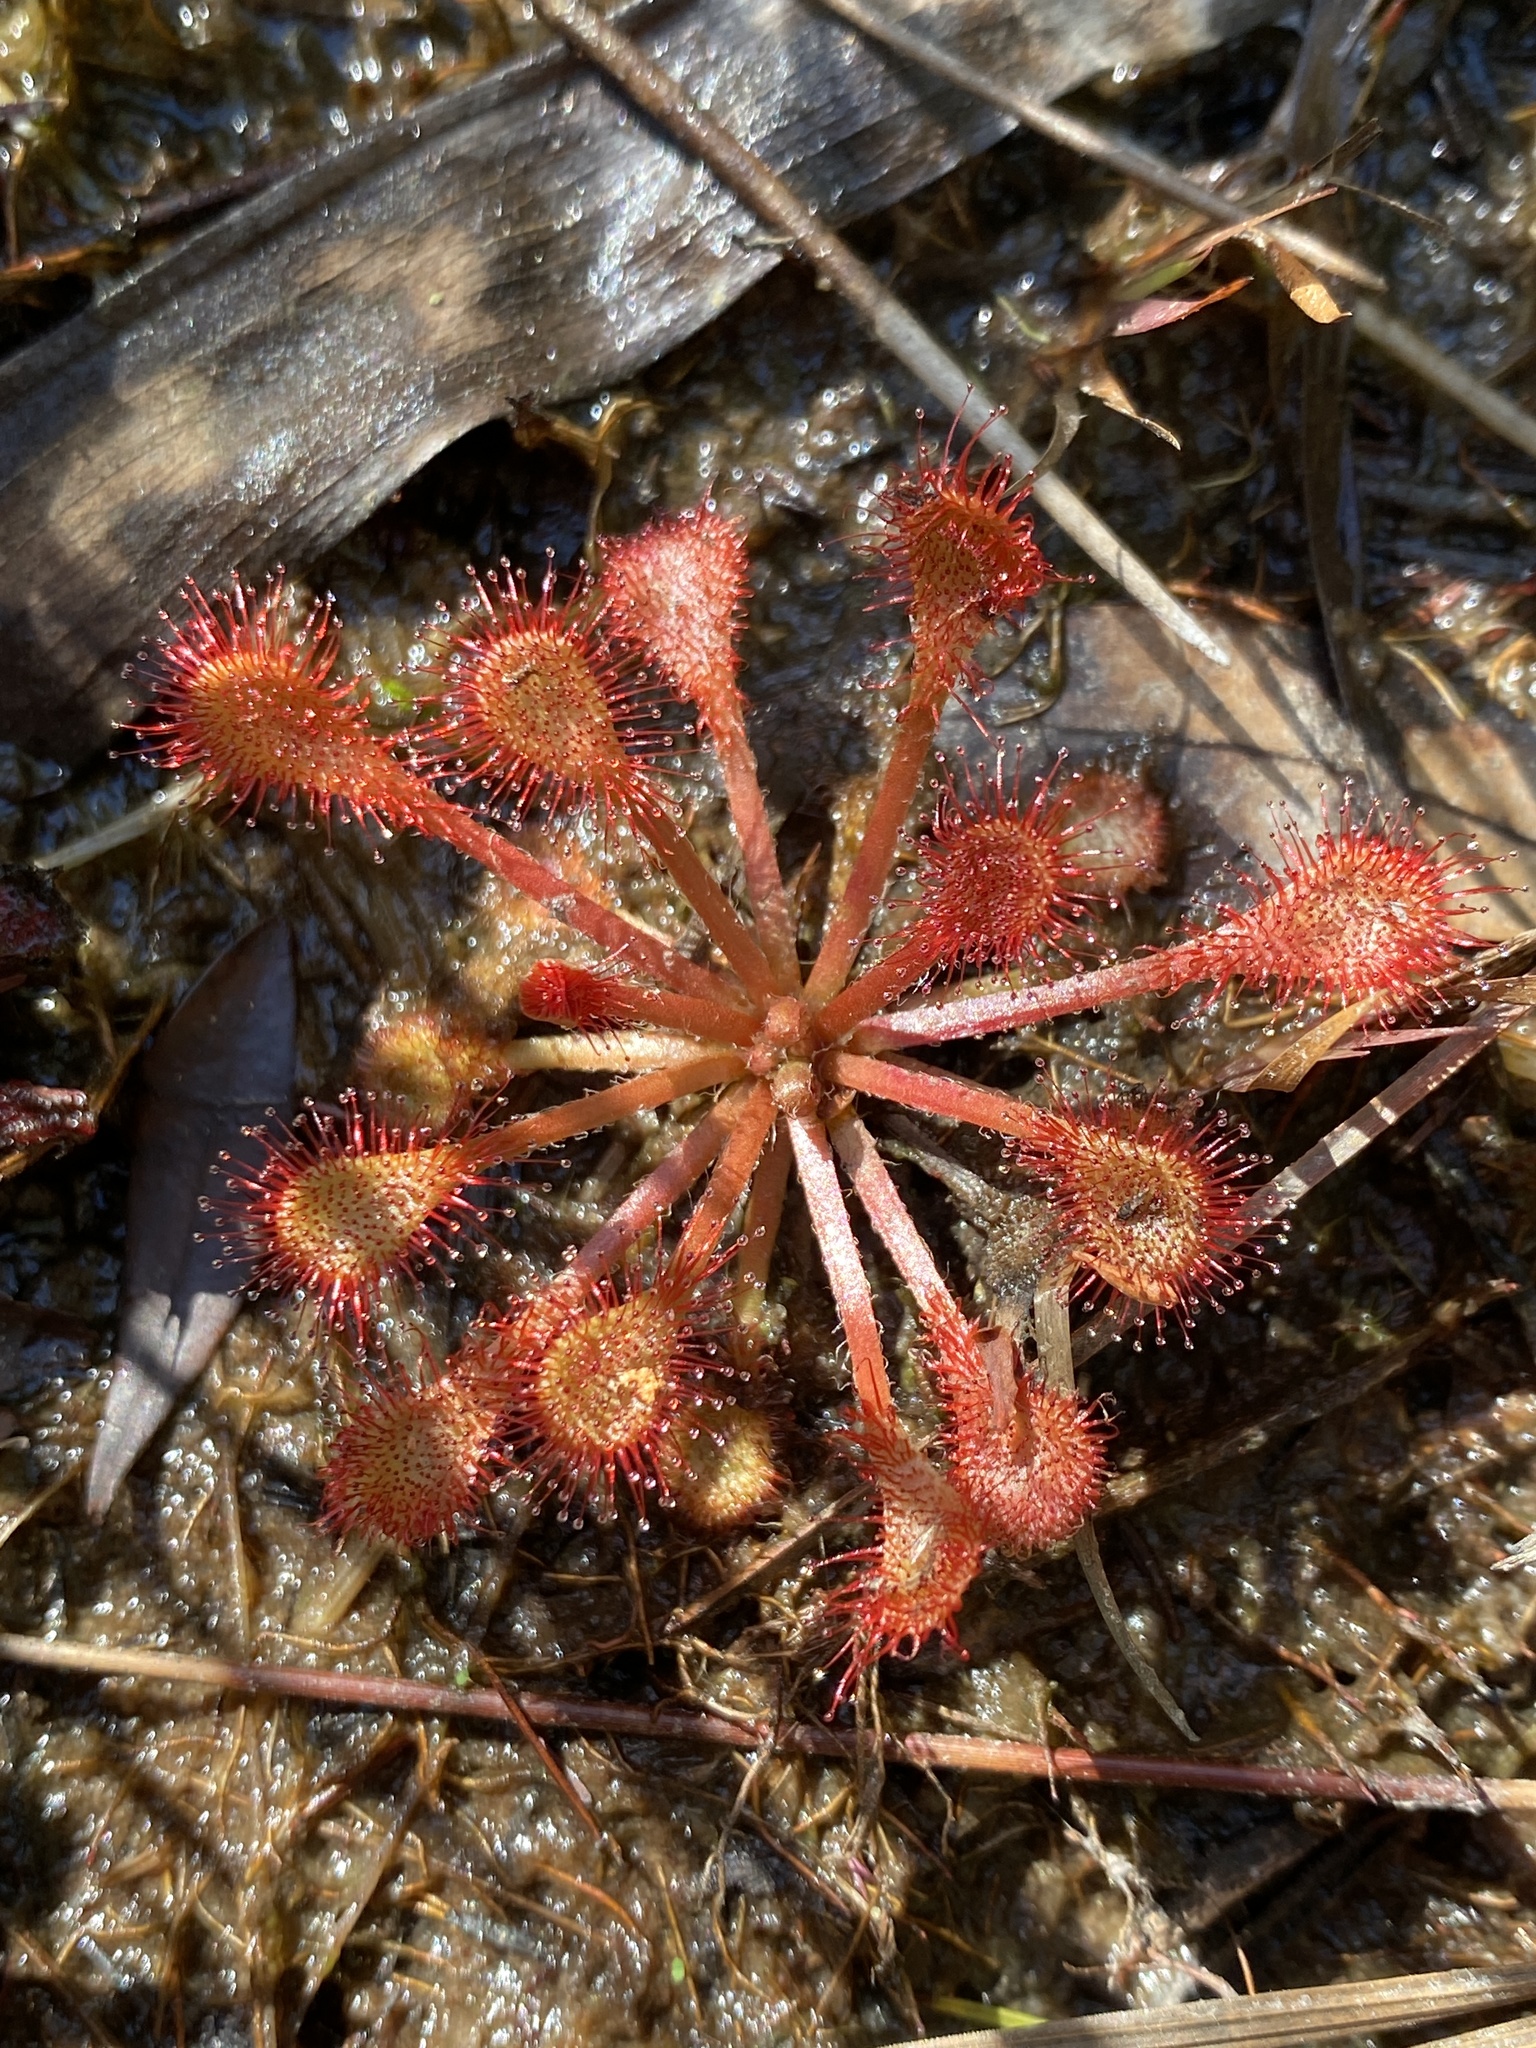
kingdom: Plantae
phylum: Tracheophyta
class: Magnoliopsida
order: Caryophyllales
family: Droseraceae
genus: Drosera
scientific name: Drosera capillaris
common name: Pink sundew
